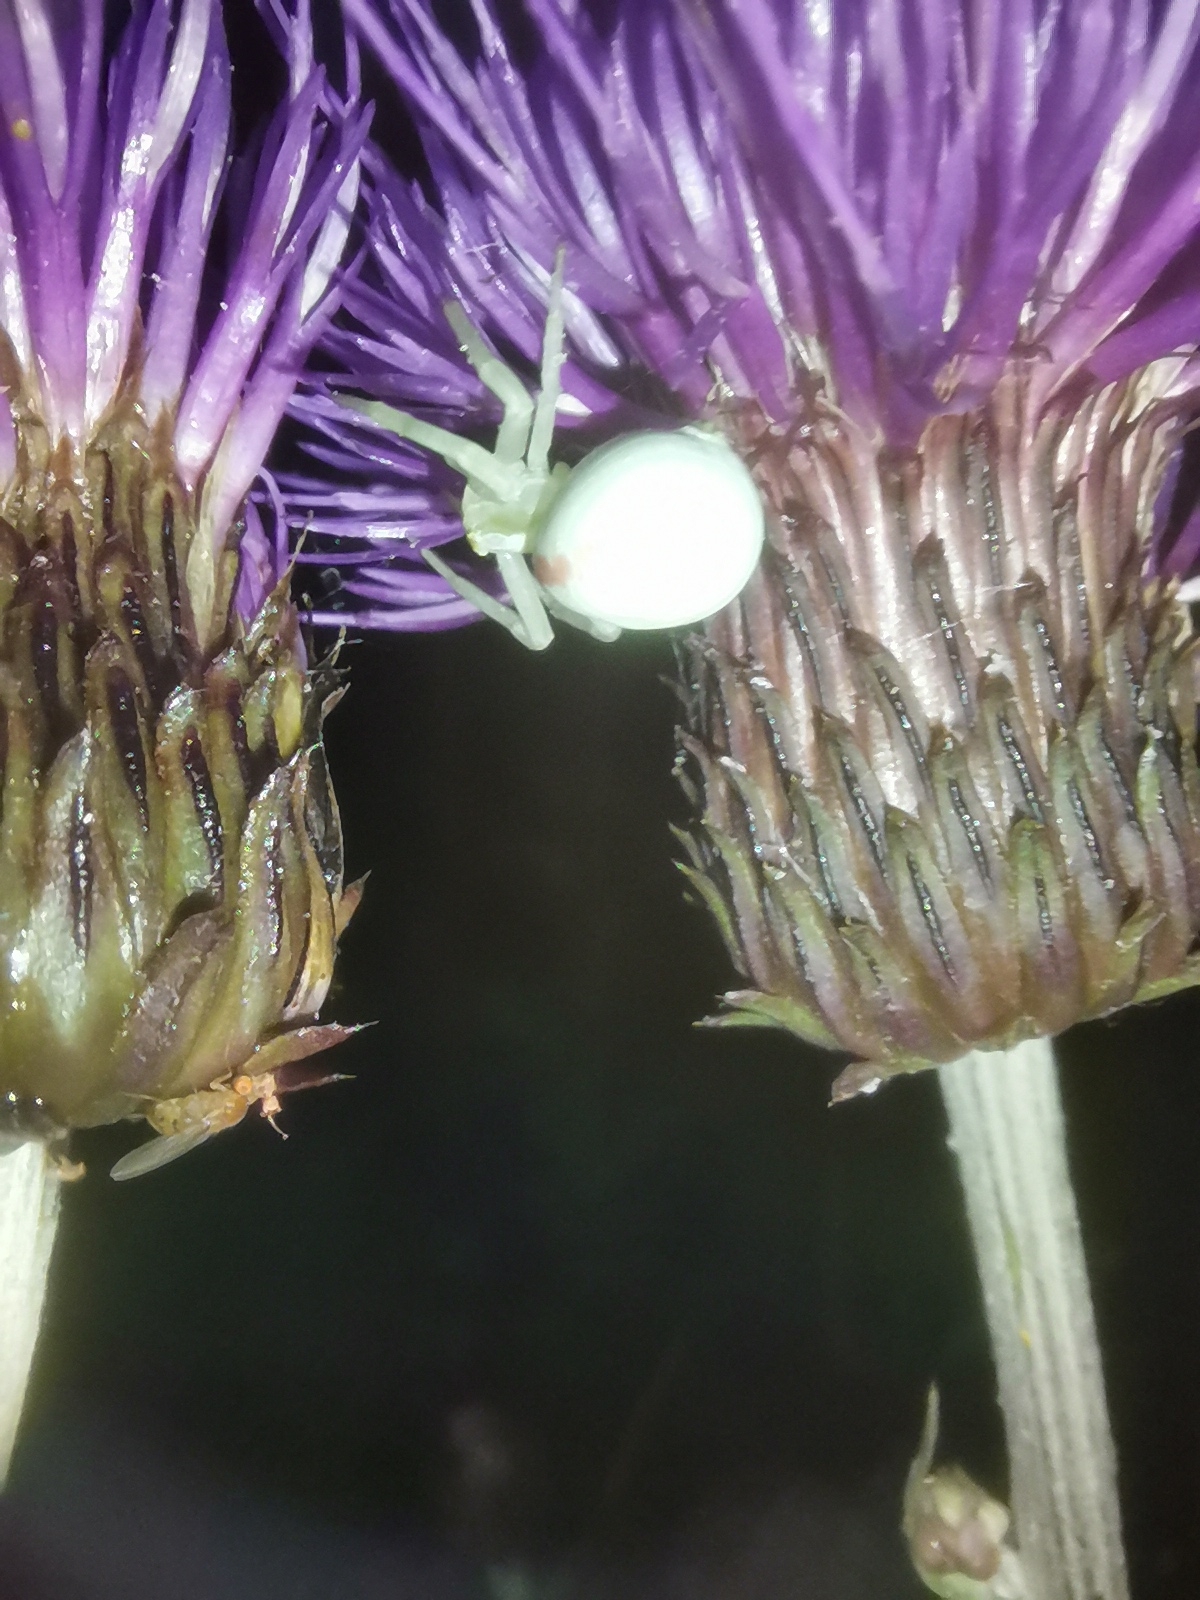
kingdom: Animalia
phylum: Arthropoda
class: Arachnida
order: Araneae
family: Thomisidae
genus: Misumena
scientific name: Misumena vatia
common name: Goldenrod crab spider
